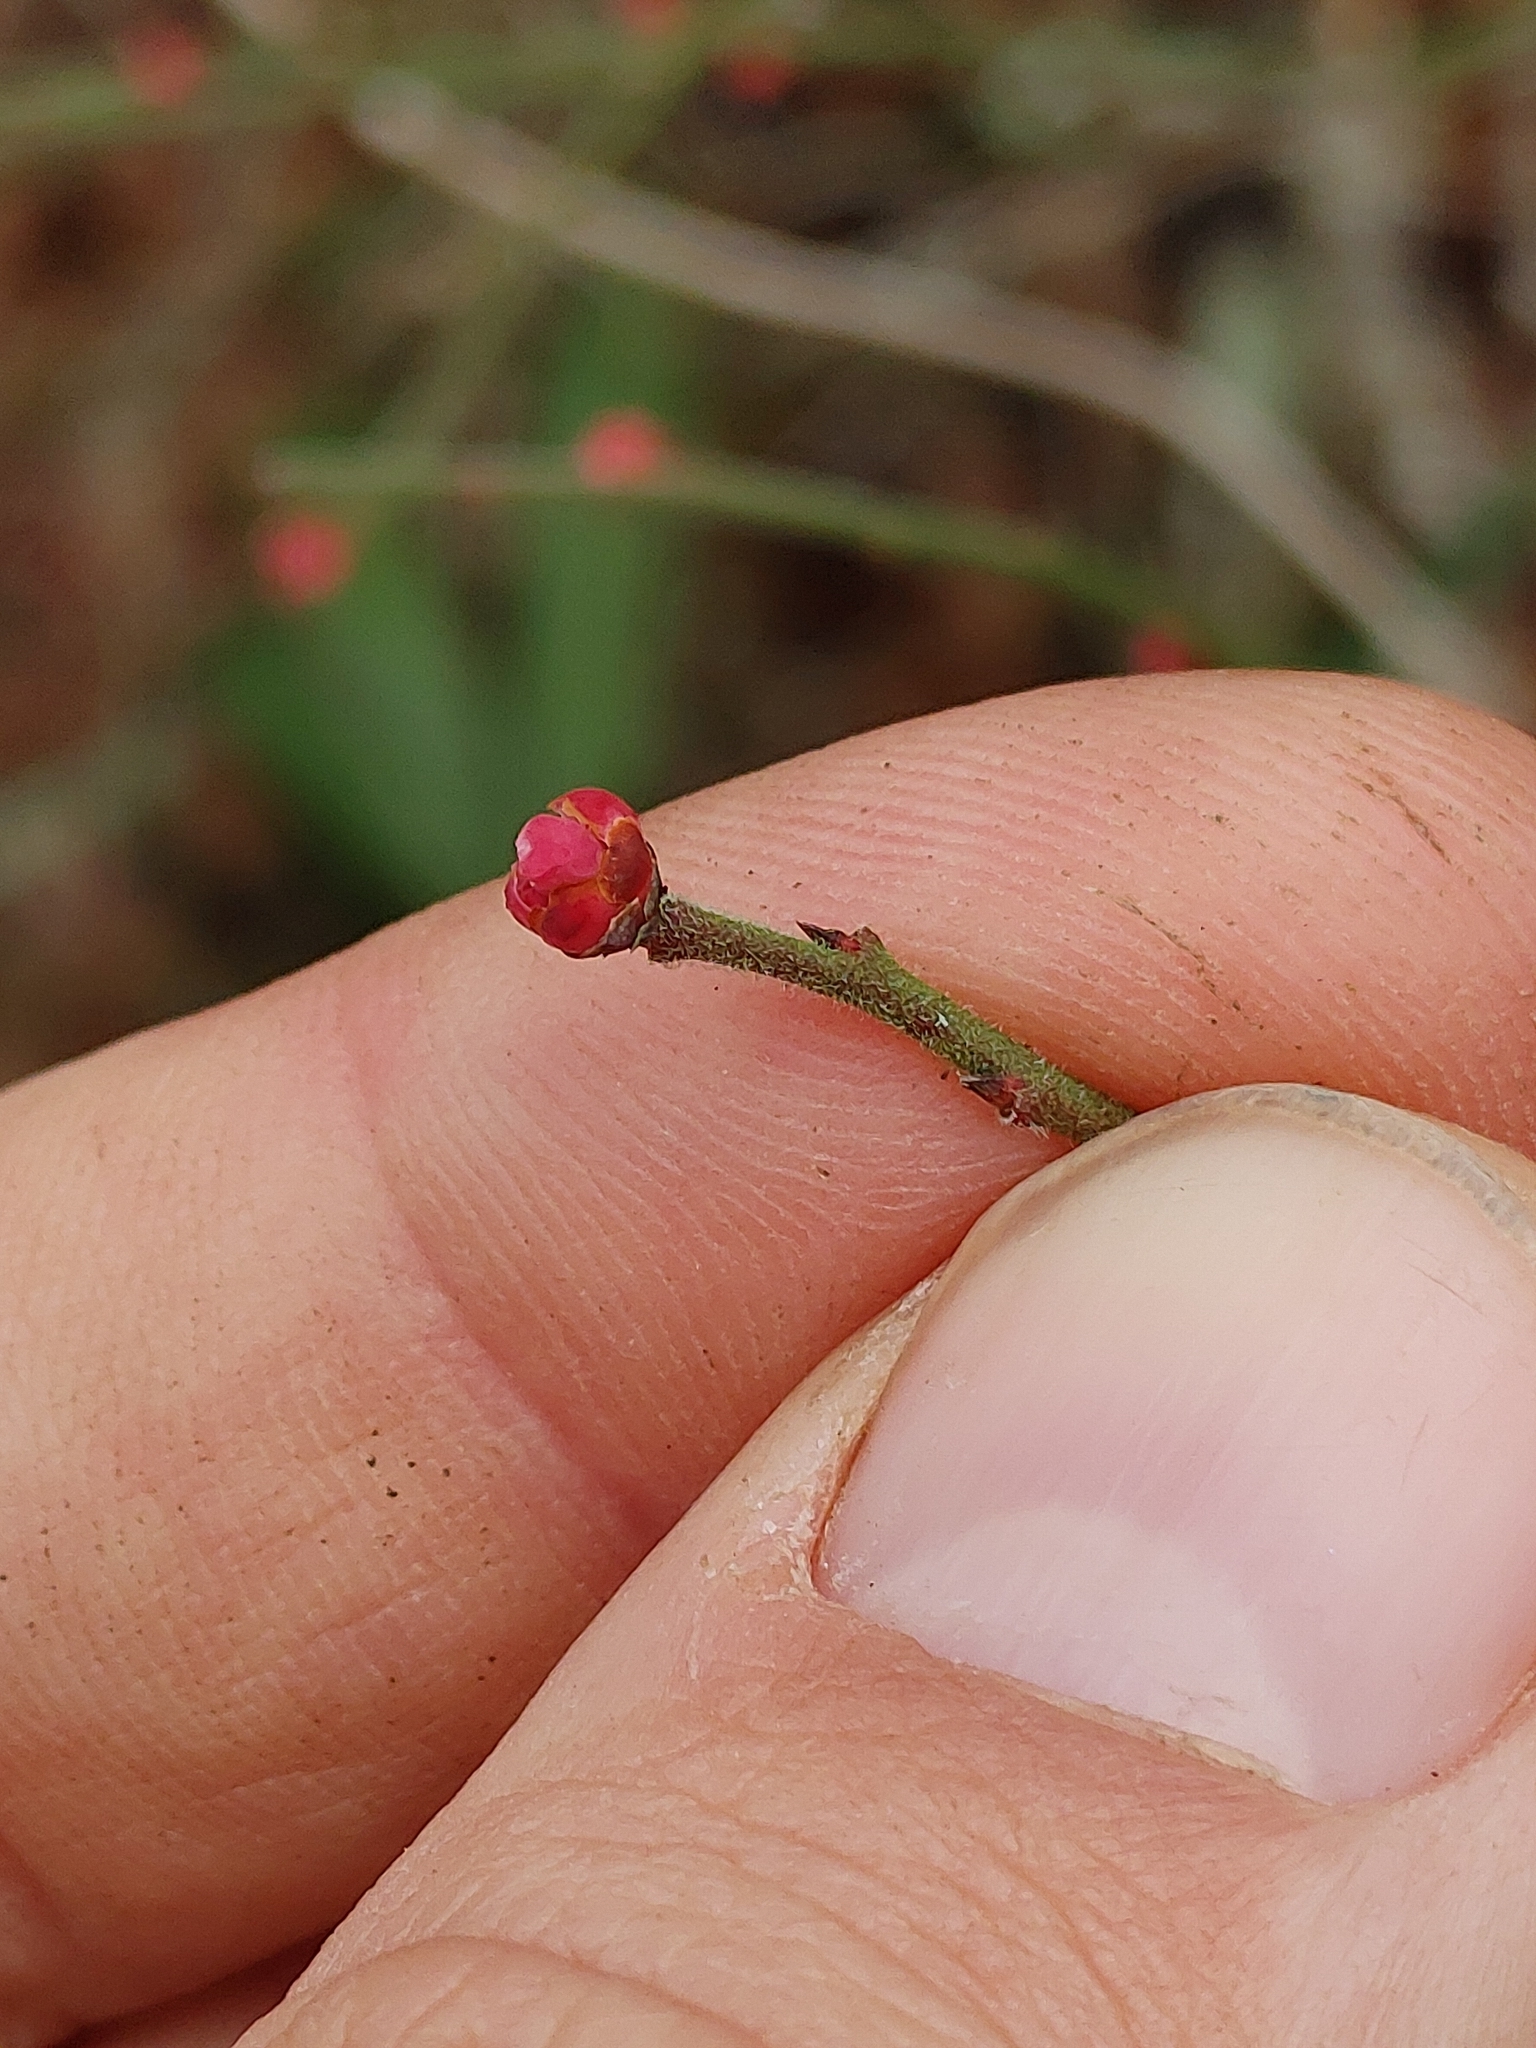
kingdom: Plantae
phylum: Tracheophyta
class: Magnoliopsida
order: Ericales
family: Ericaceae
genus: Vaccinium
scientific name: Vaccinium corymbosum
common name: Blueberry
